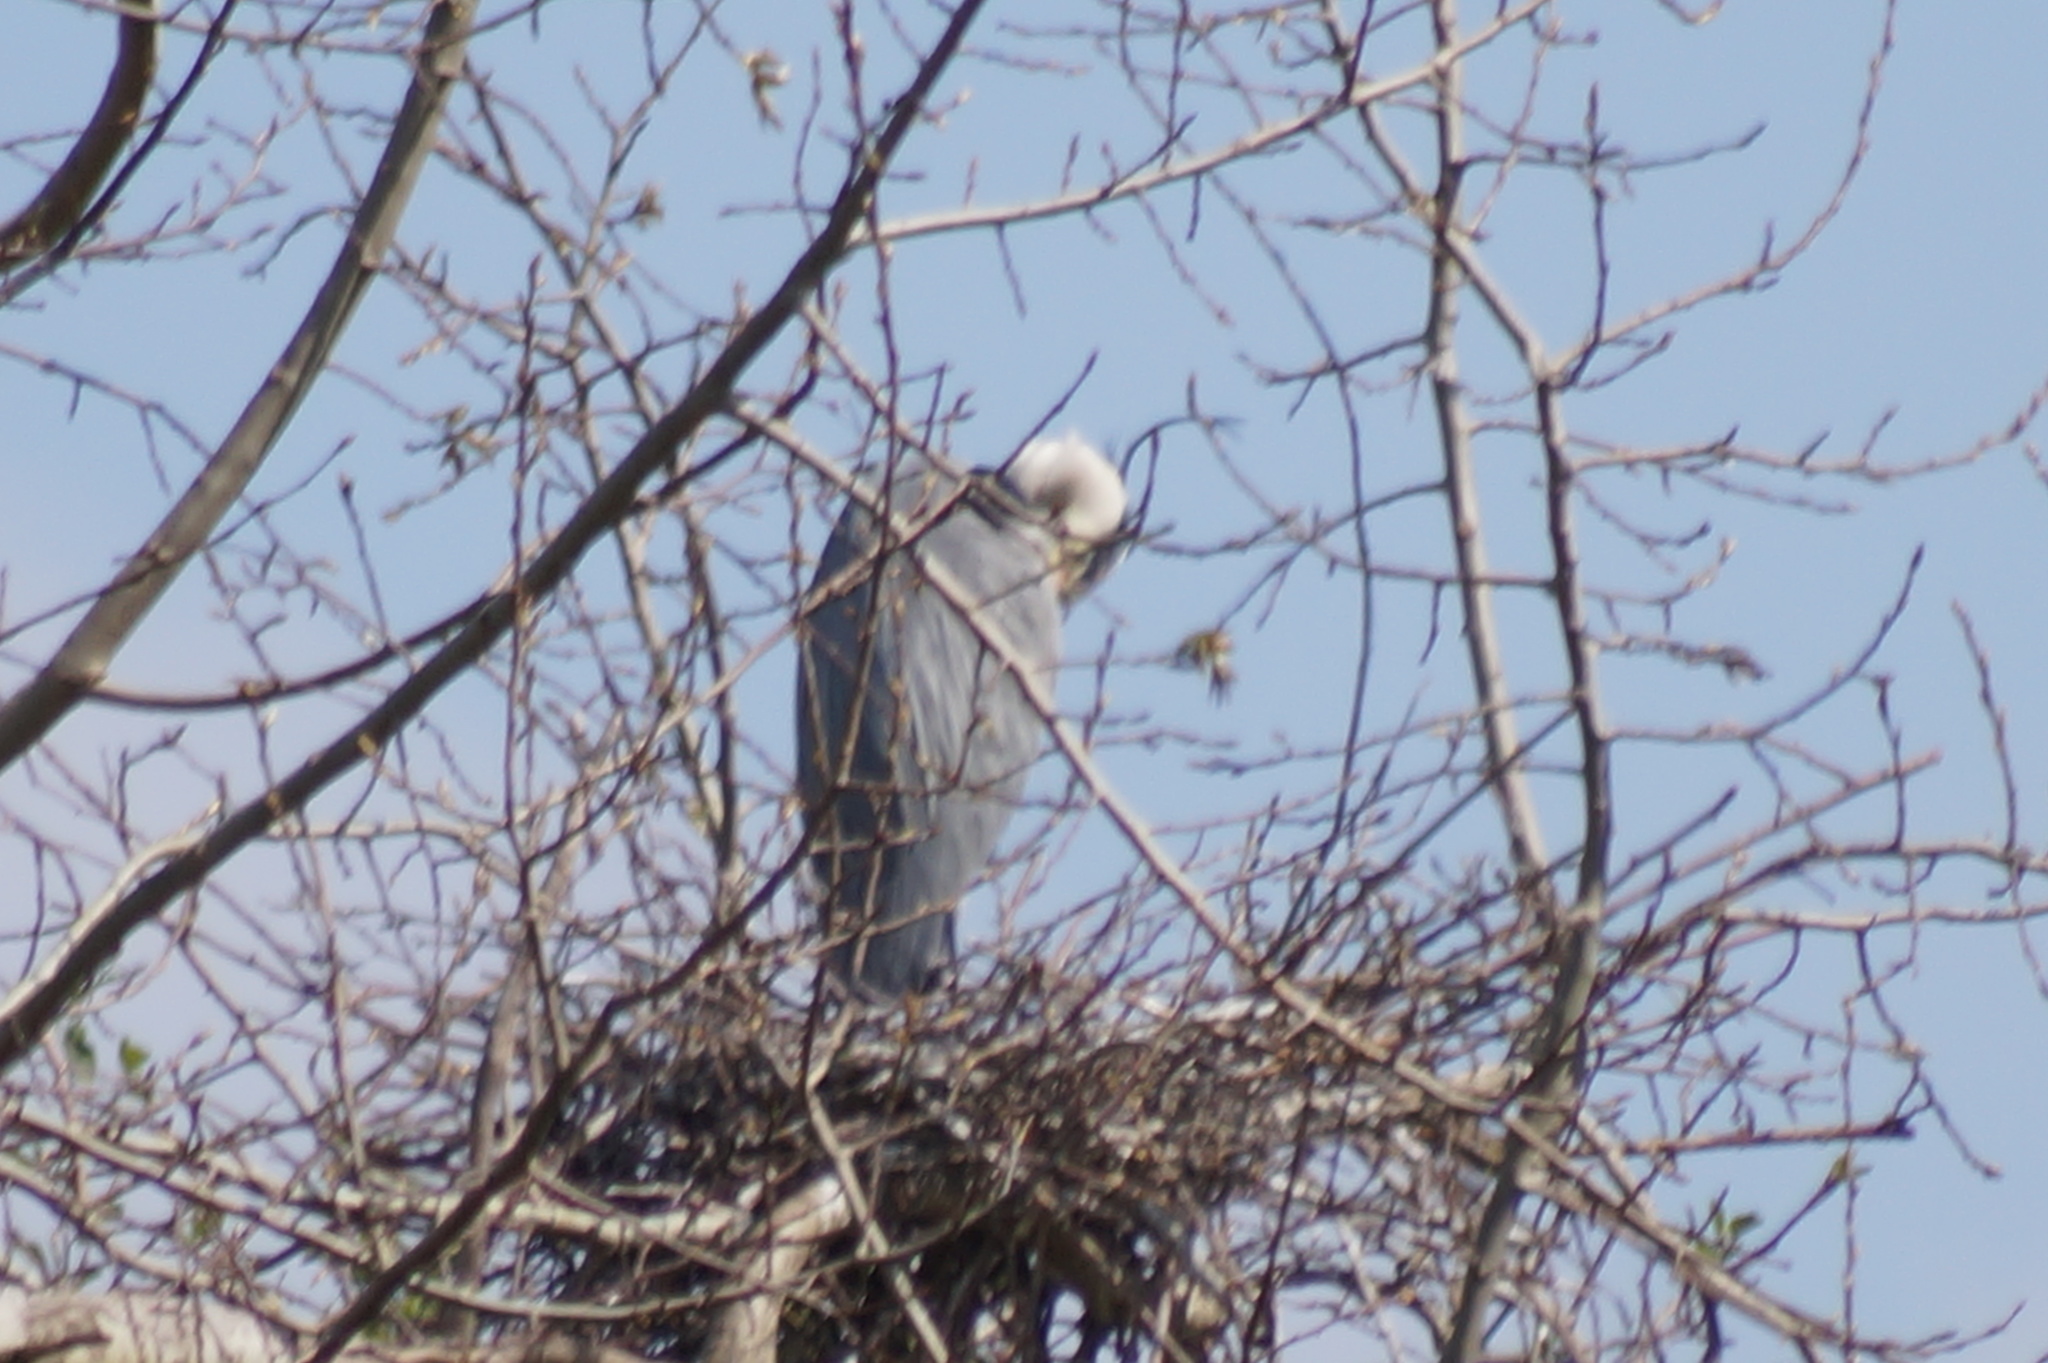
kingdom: Animalia
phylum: Chordata
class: Aves
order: Pelecaniformes
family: Ardeidae
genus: Ardea
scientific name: Ardea cinerea
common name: Grey heron
